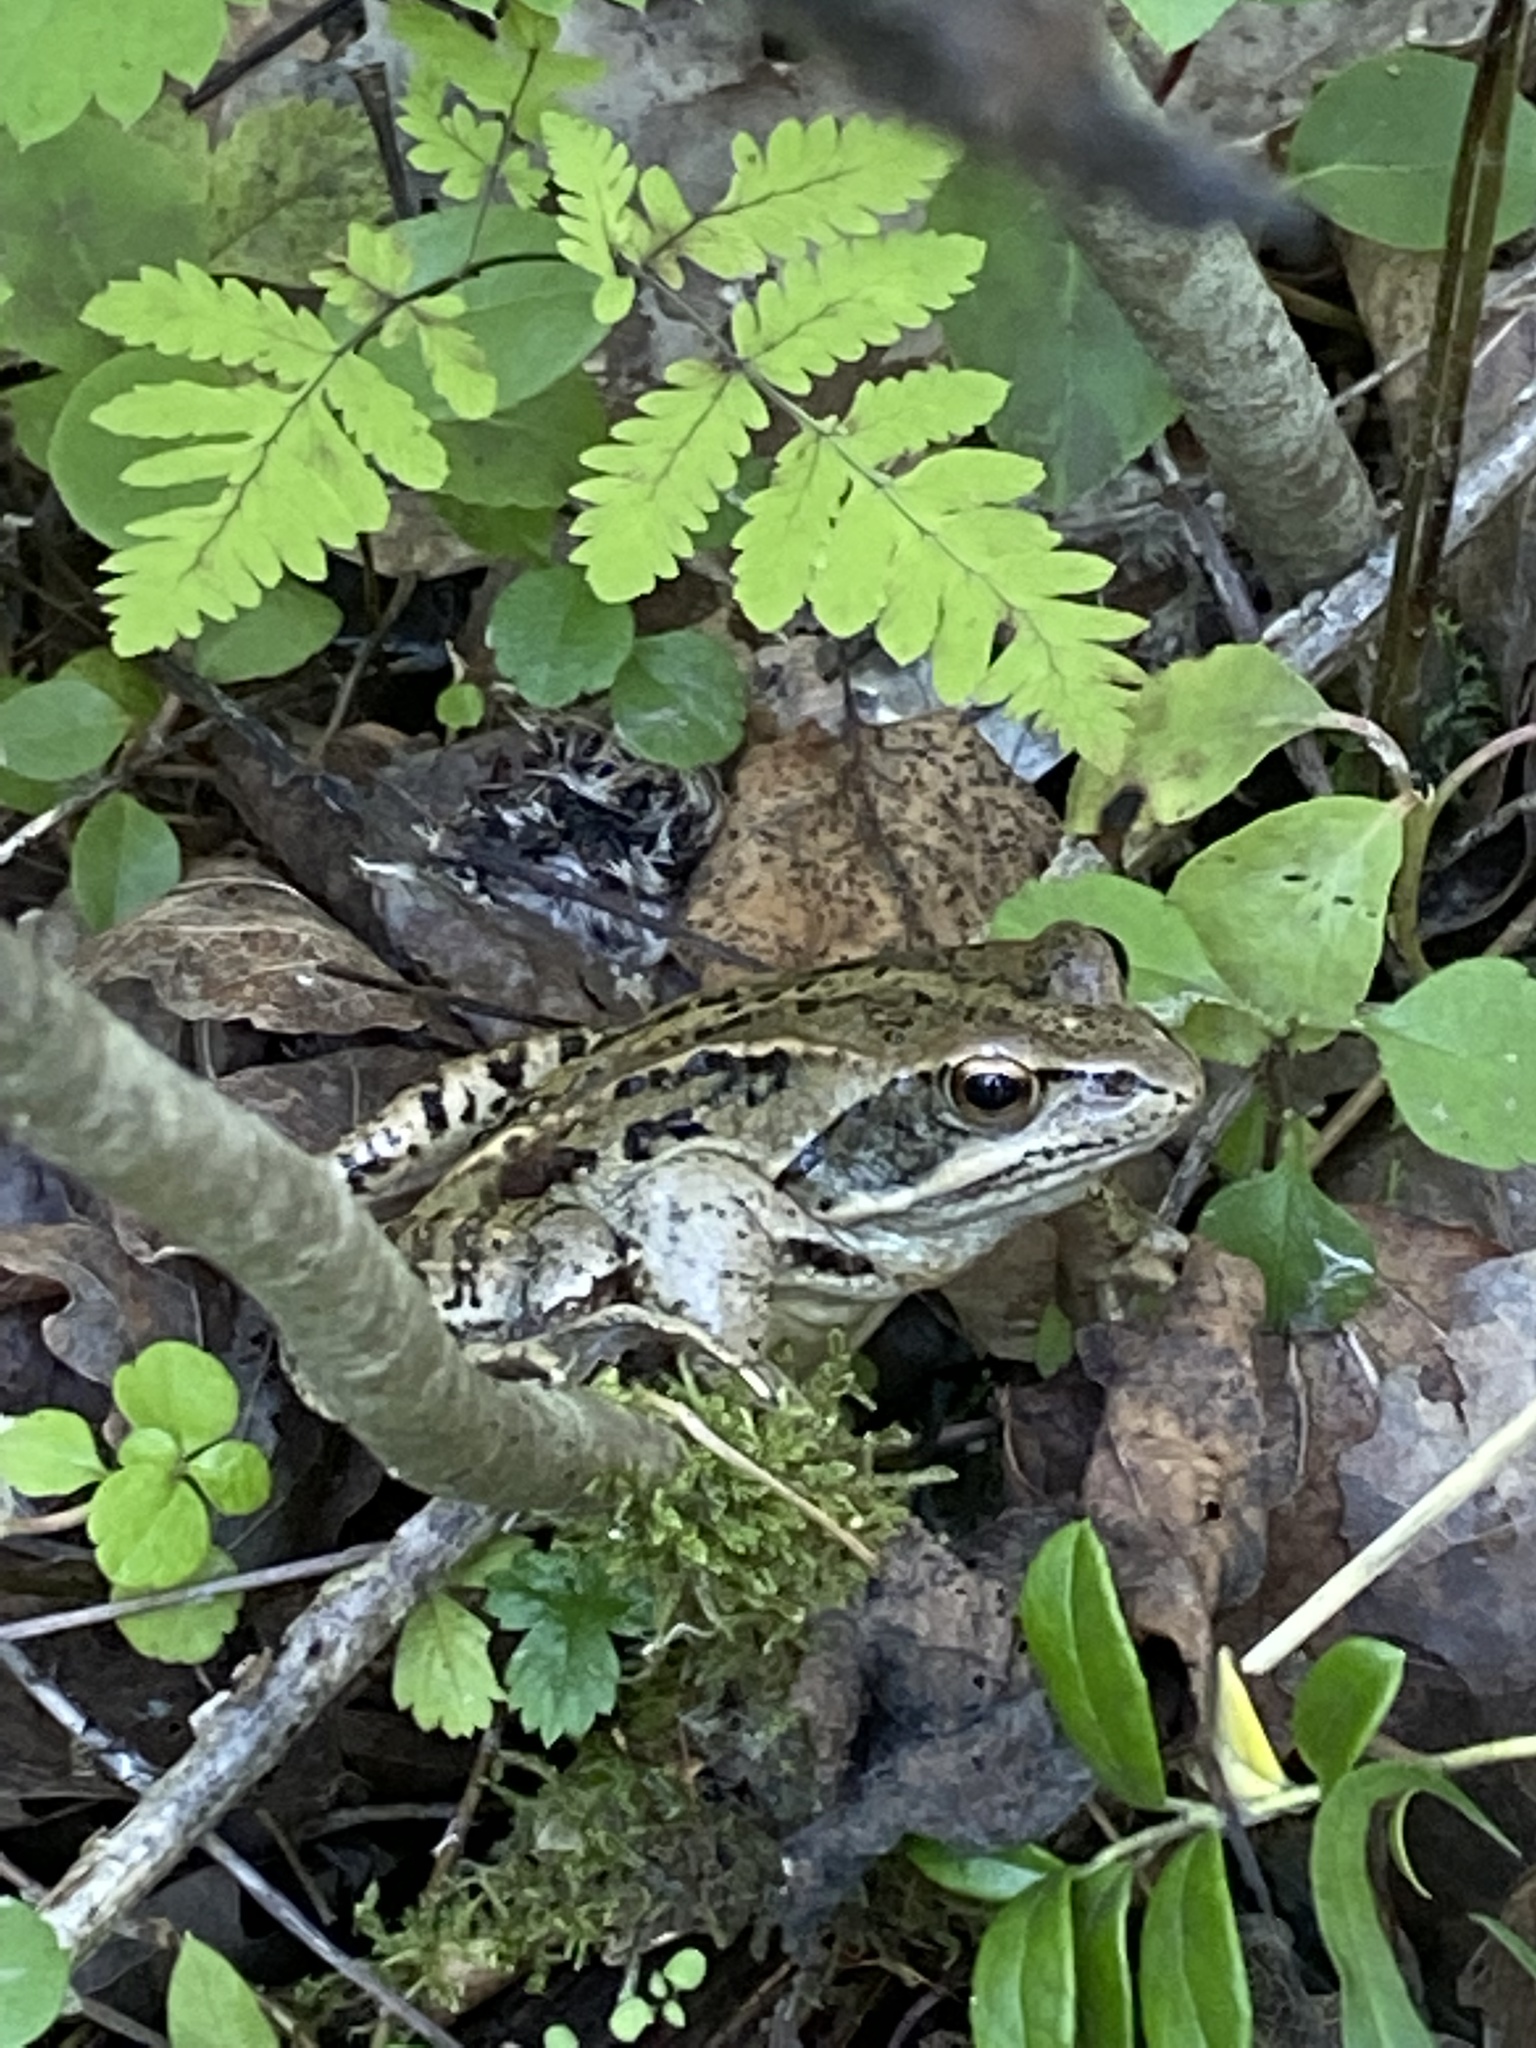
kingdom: Animalia
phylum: Chordata
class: Amphibia
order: Anura
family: Ranidae
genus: Rana
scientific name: Rana arvalis
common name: Moor frog
